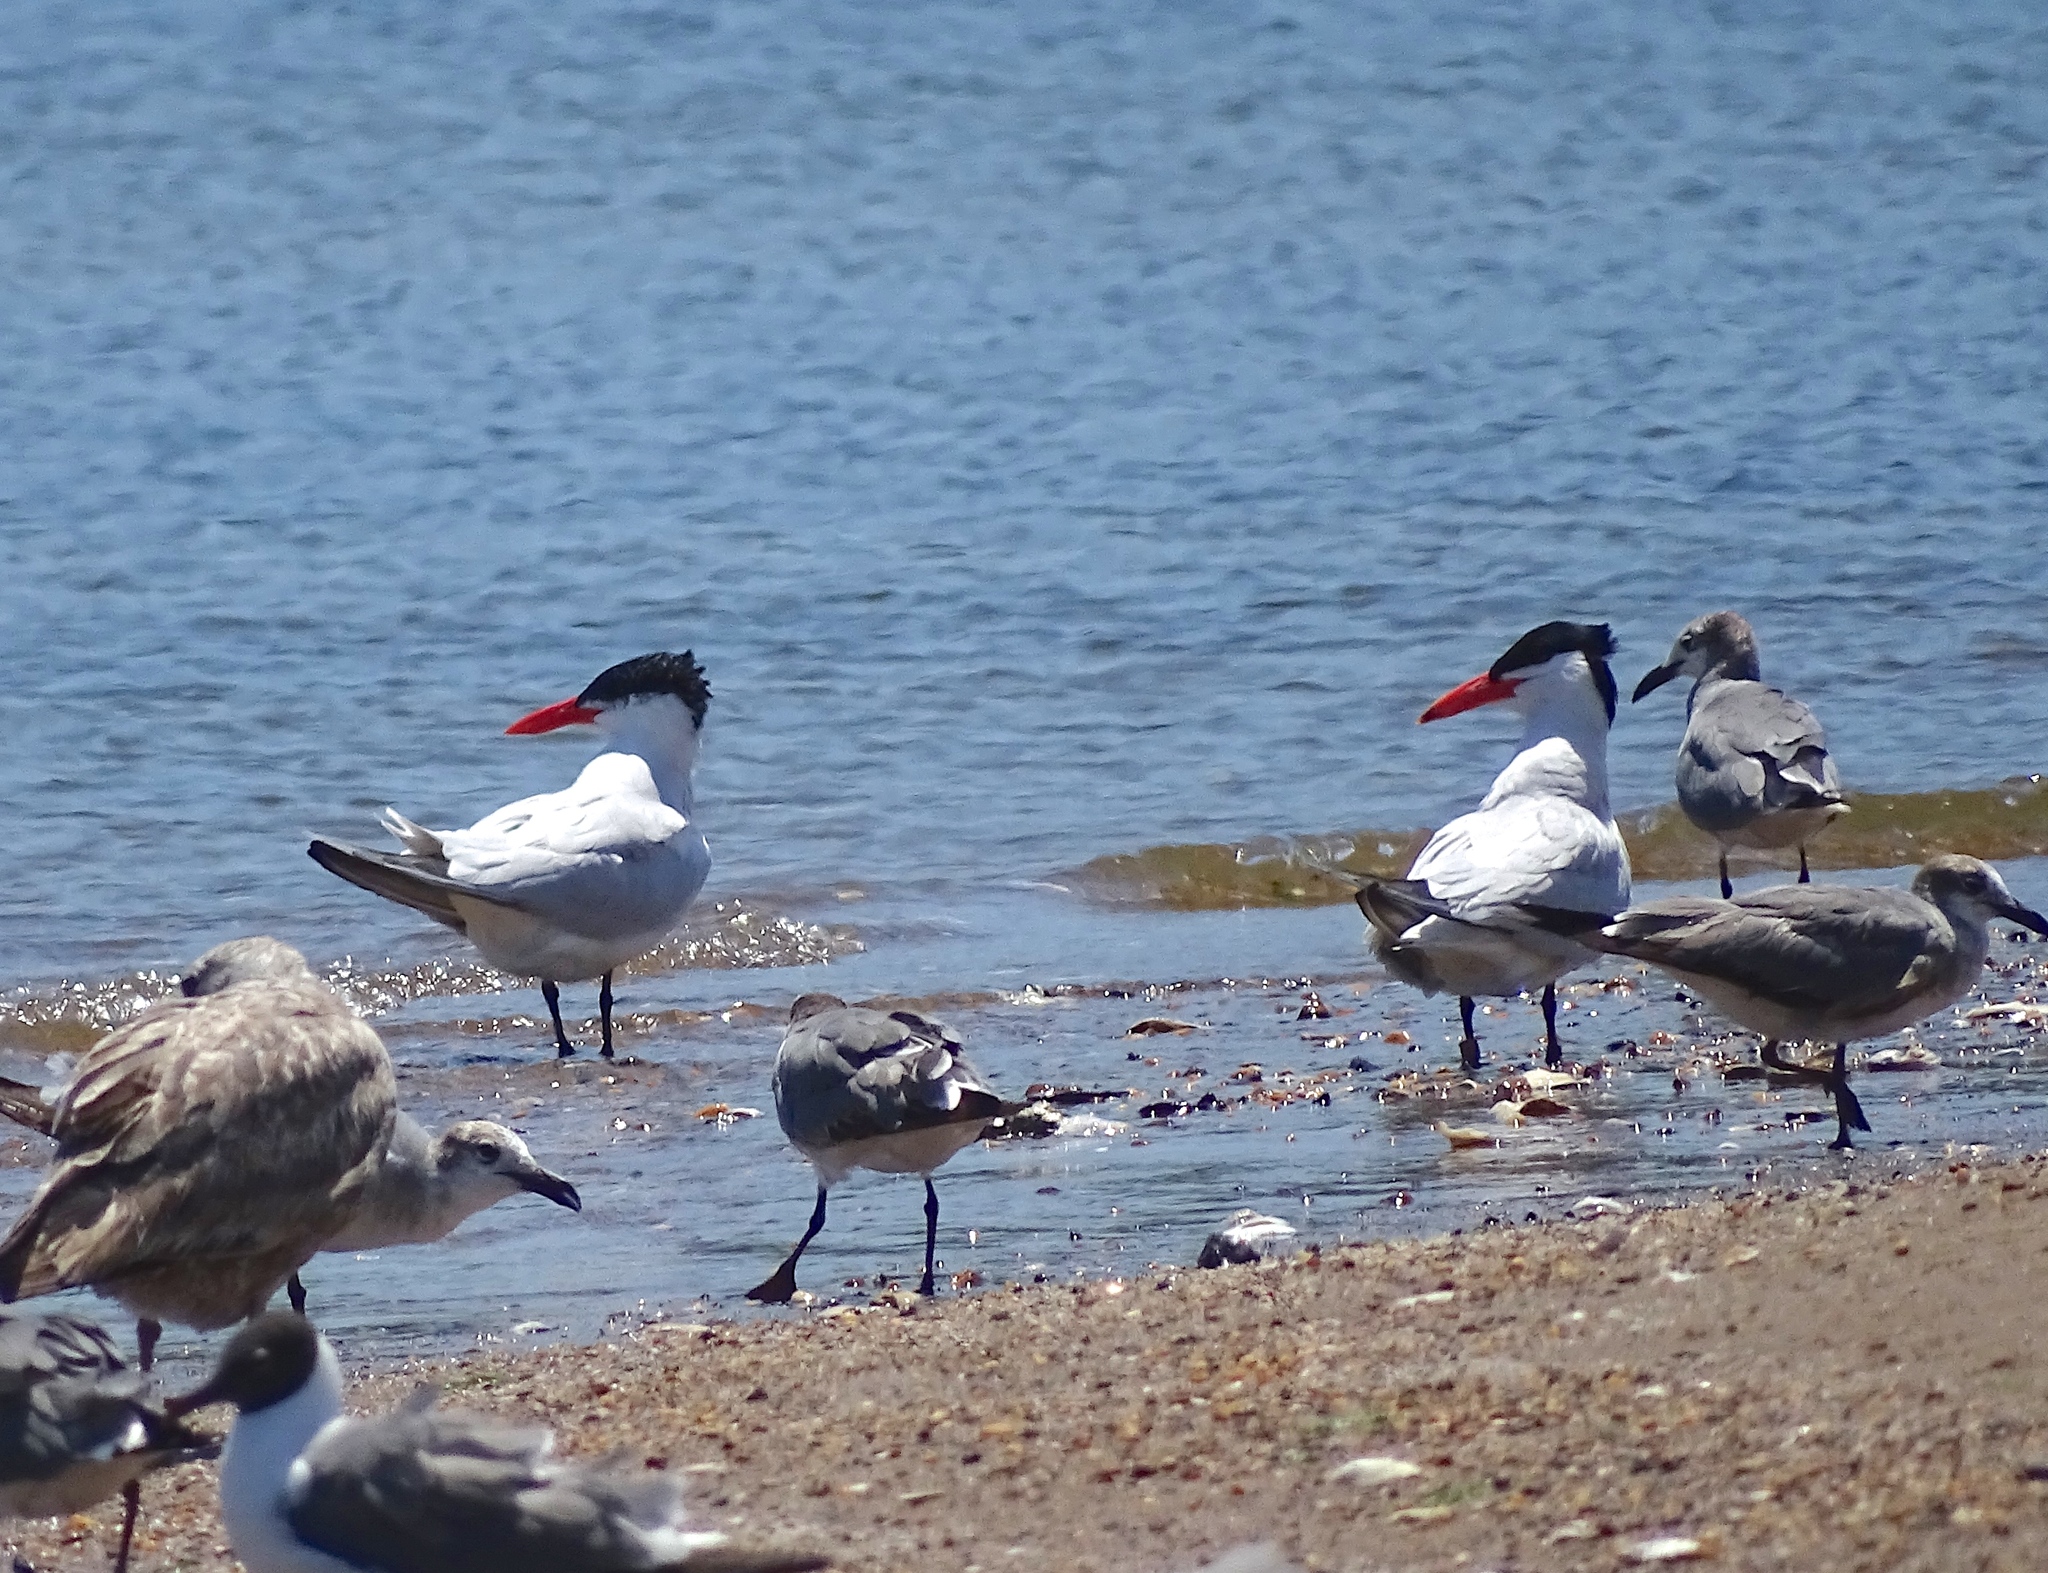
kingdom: Animalia
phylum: Chordata
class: Aves
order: Charadriiformes
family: Laridae
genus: Hydroprogne
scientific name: Hydroprogne caspia
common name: Caspian tern
